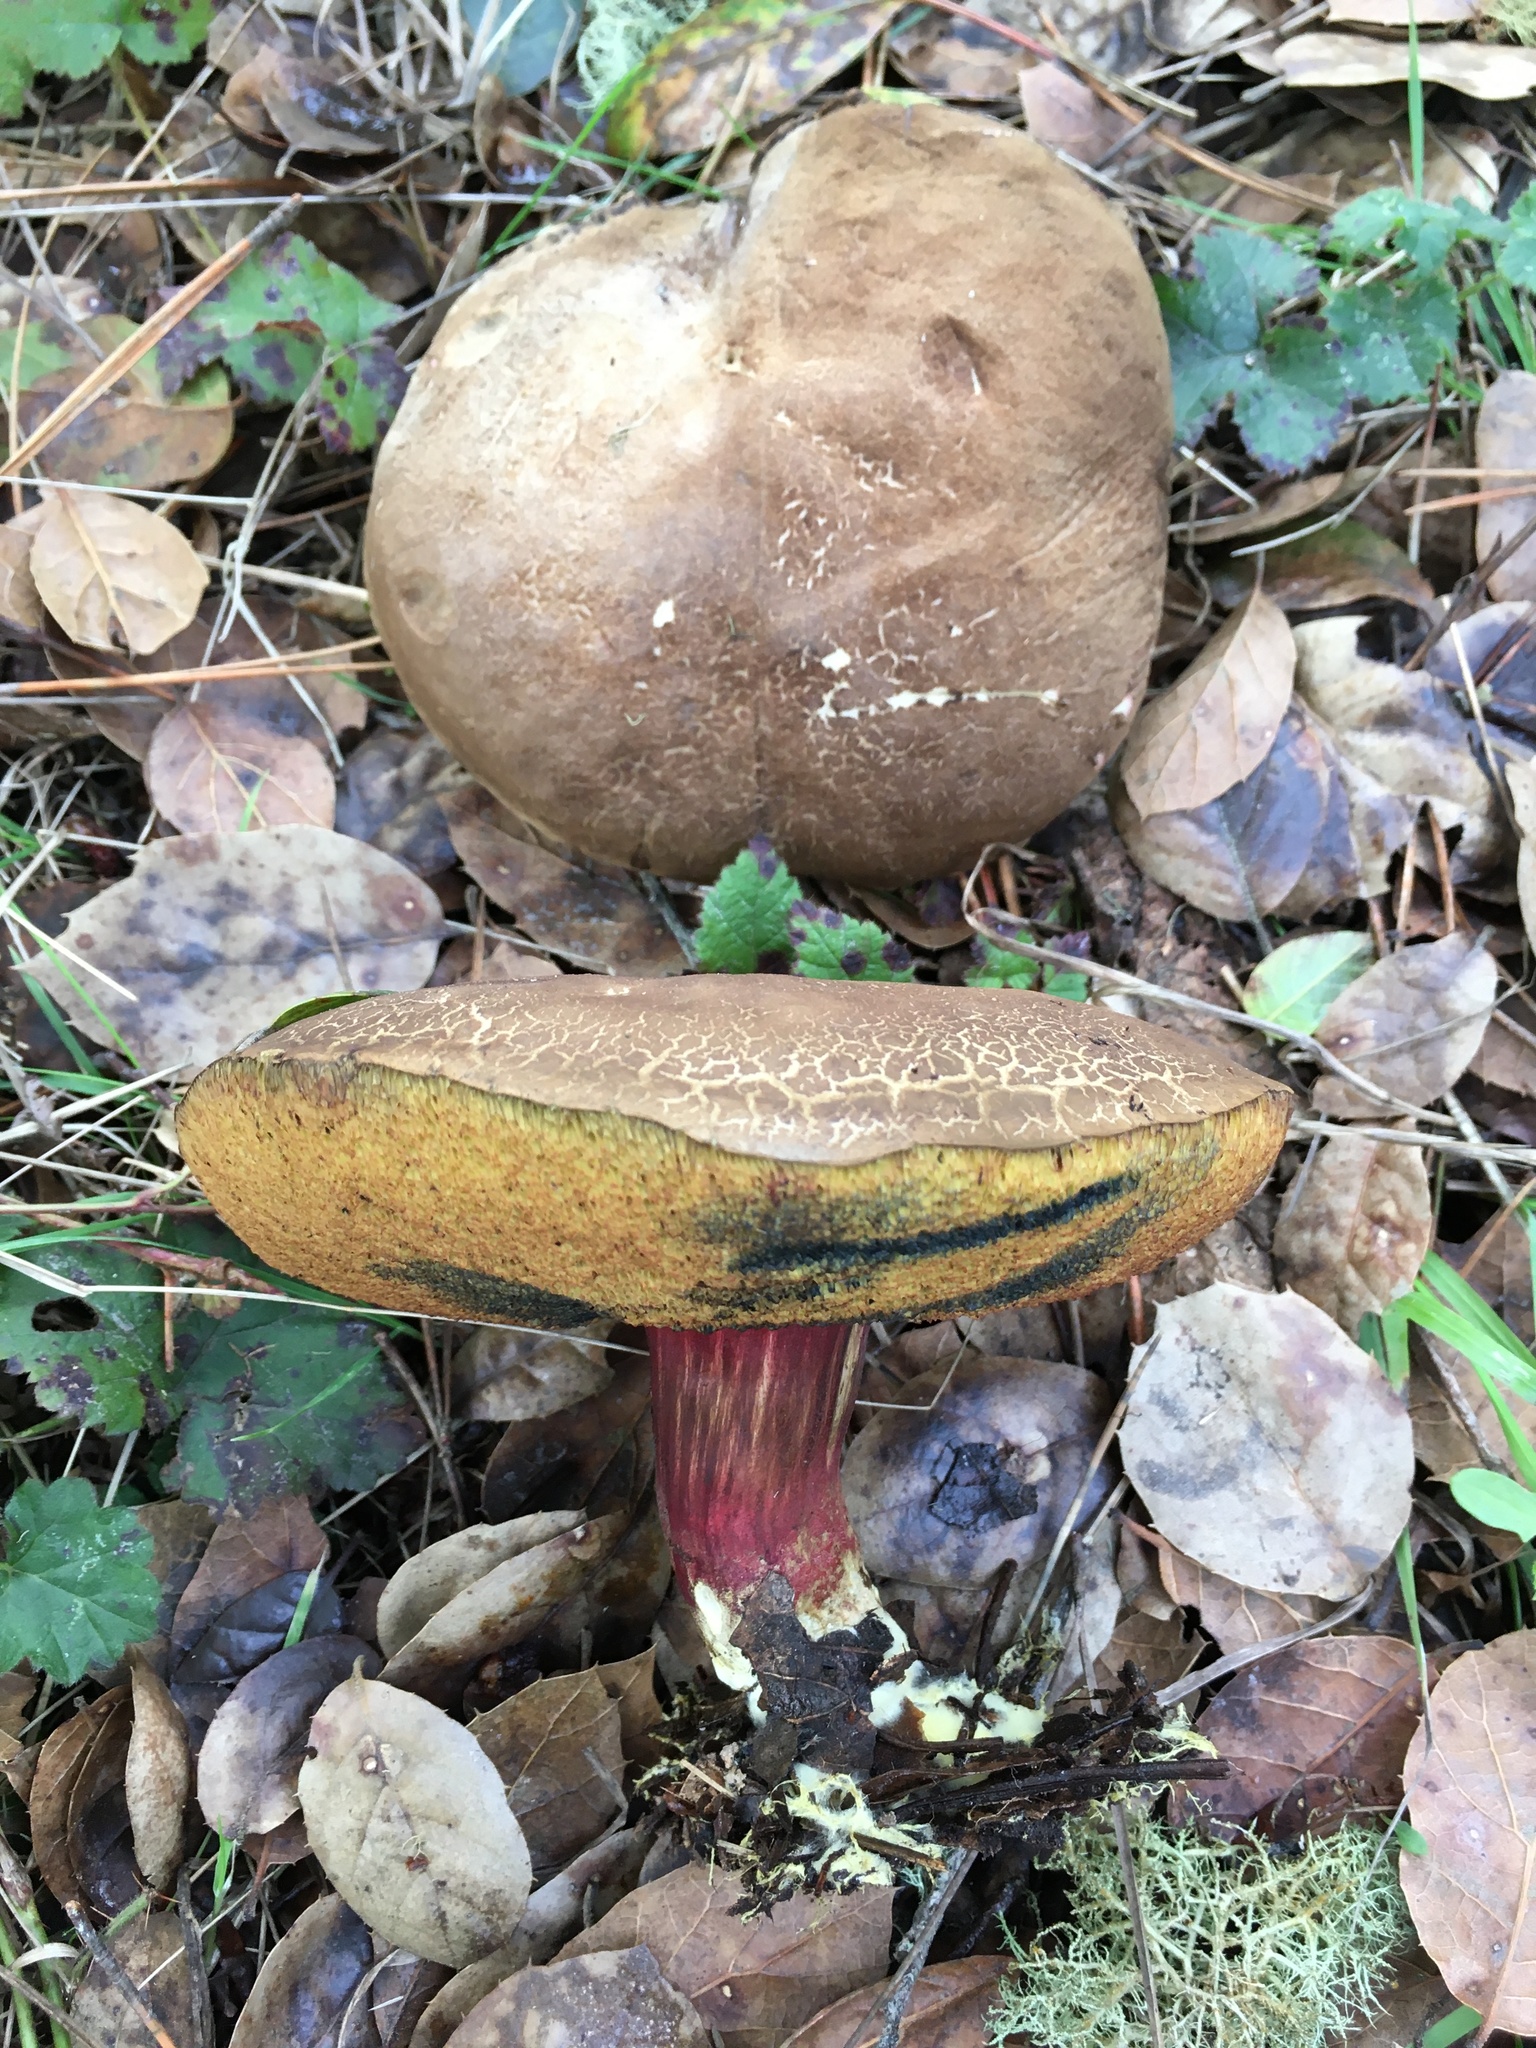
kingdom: Fungi
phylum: Basidiomycota
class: Agaricomycetes
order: Boletales
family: Boletaceae
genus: Xerocomellus
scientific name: Xerocomellus mendocinensis
